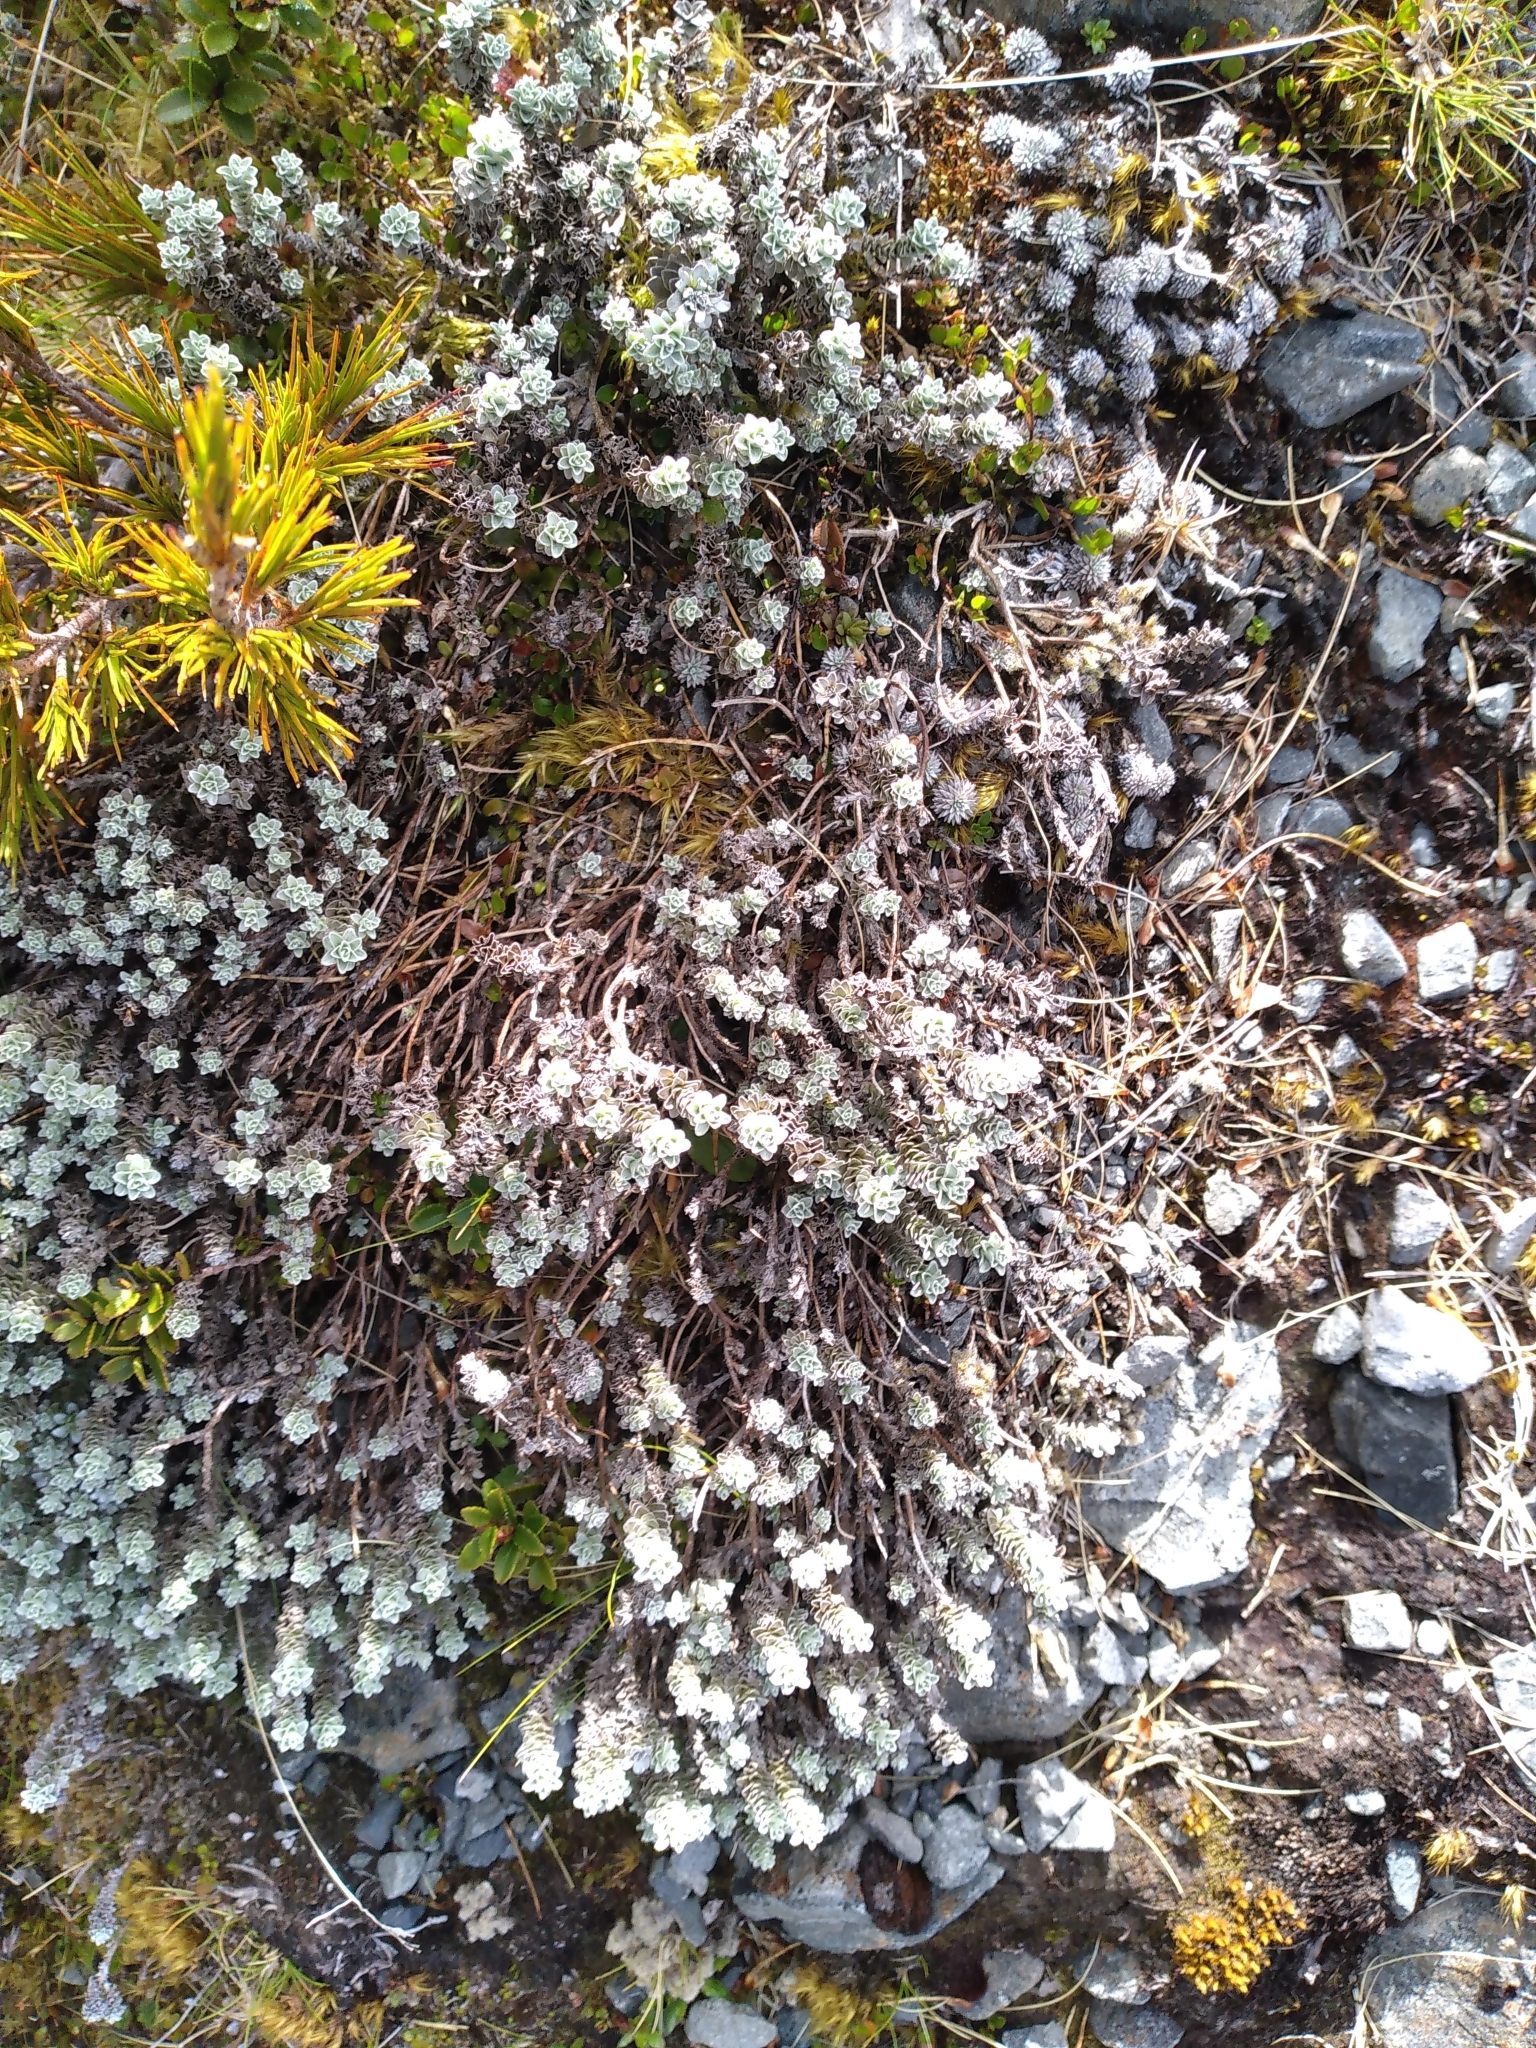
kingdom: Plantae
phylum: Tracheophyta
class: Magnoliopsida
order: Asterales
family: Asteraceae
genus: Leucogenes
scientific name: Leucogenes grandiceps
